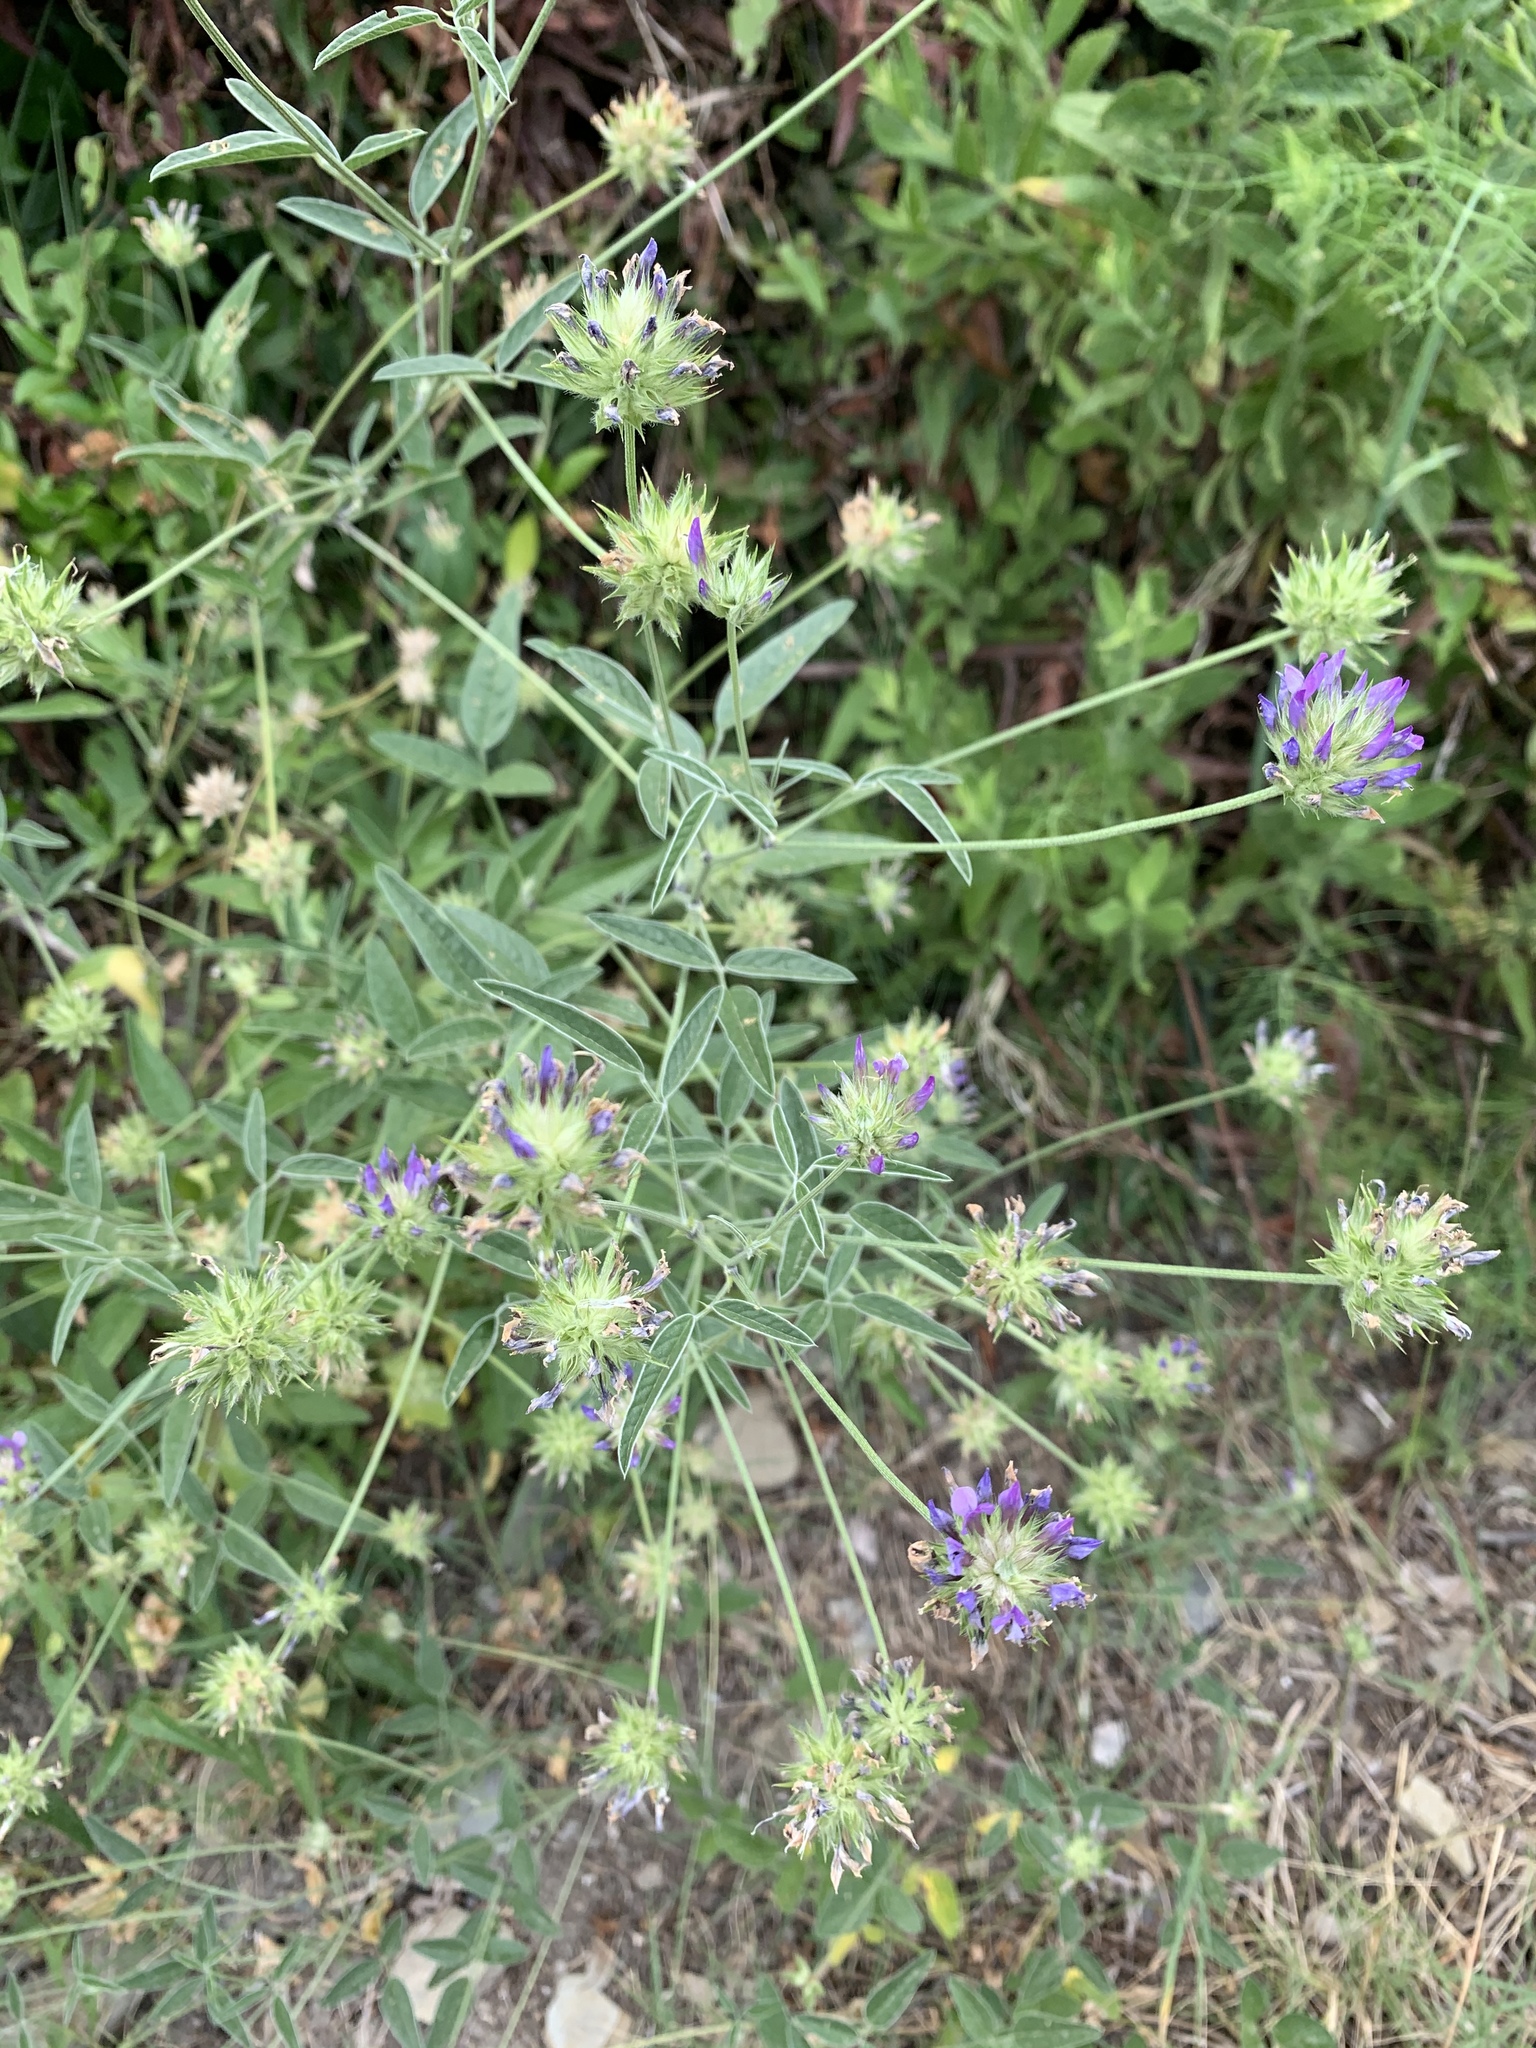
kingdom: Plantae
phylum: Tracheophyta
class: Magnoliopsida
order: Fabales
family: Fabaceae
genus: Bituminaria
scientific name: Bituminaria bituminosa
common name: Arabian pea
